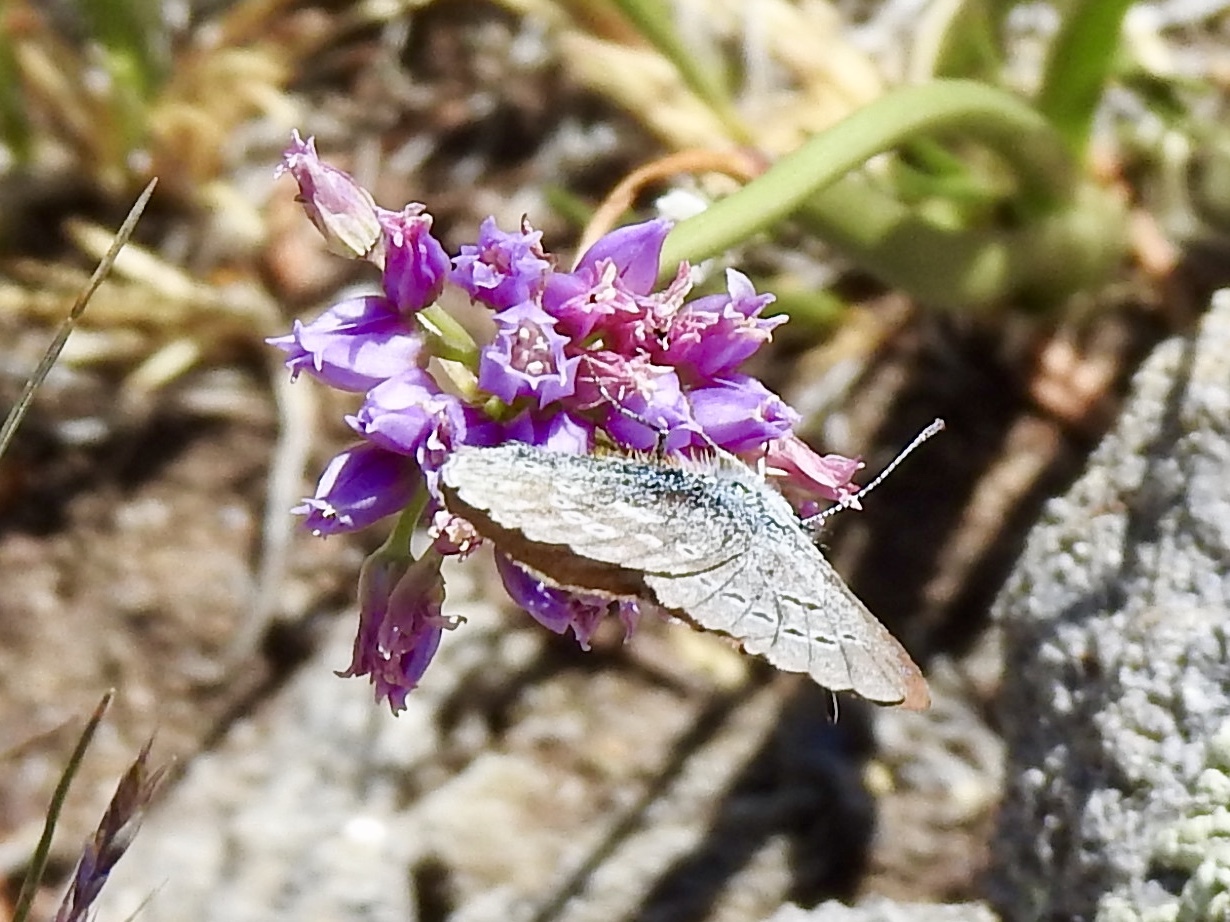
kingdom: Animalia
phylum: Arthropoda
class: Insecta
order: Lepidoptera
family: Lycaenidae
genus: Icaricia
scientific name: Icaricia icarioides
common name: Boisduval's blue
